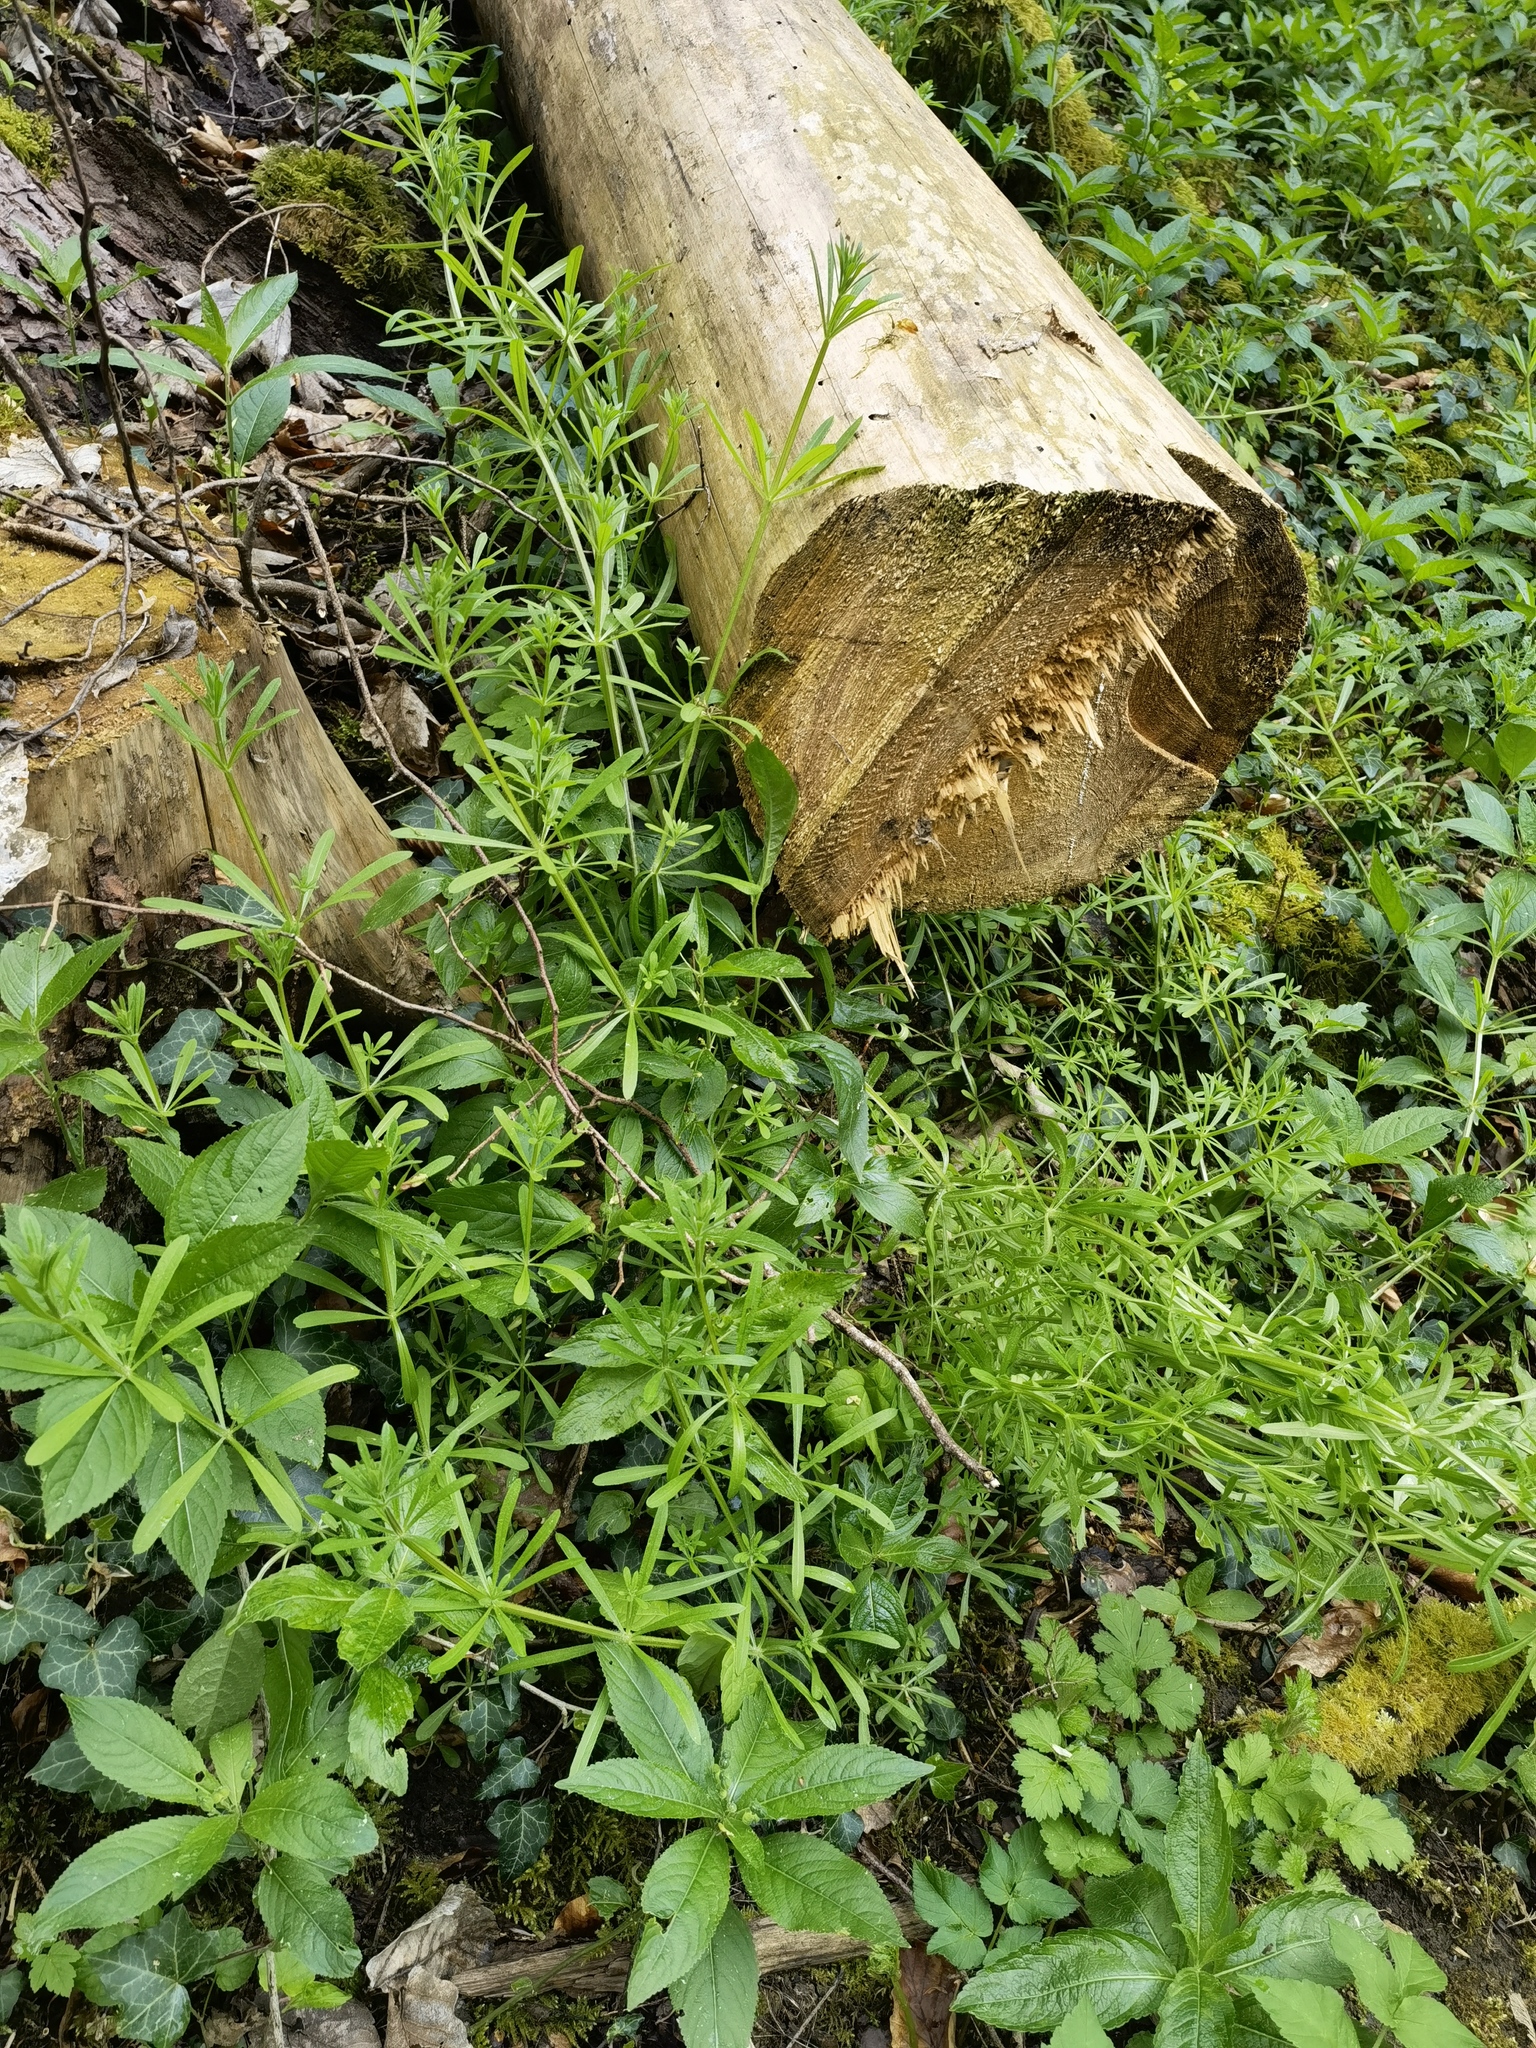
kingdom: Plantae
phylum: Tracheophyta
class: Magnoliopsida
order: Gentianales
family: Rubiaceae
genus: Galium
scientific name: Galium aparine
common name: Cleavers
